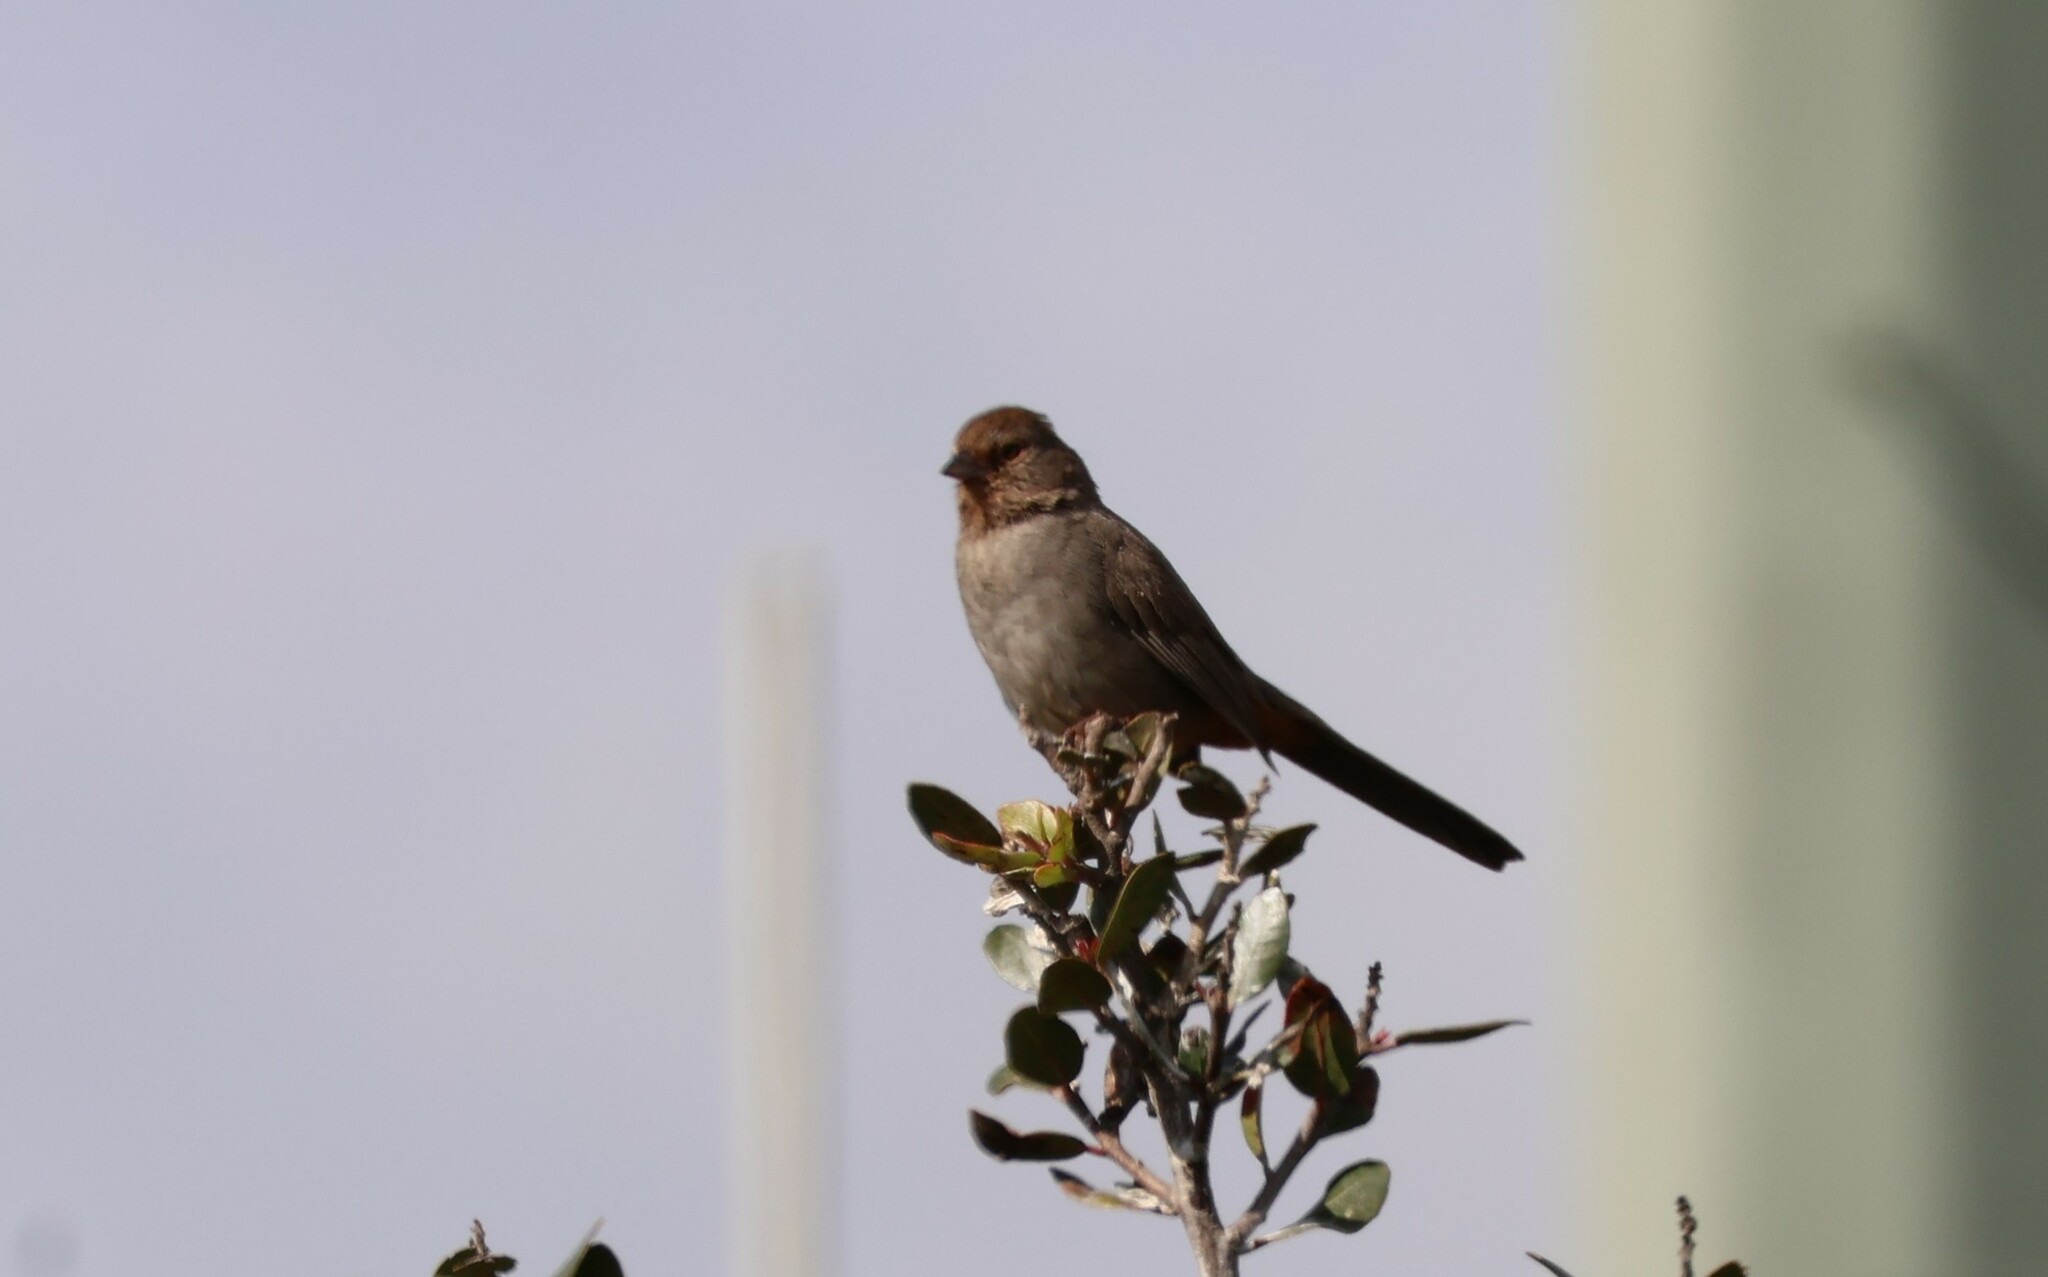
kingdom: Animalia
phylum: Chordata
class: Aves
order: Passeriformes
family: Passerellidae
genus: Melozone
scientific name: Melozone crissalis
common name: California towhee
